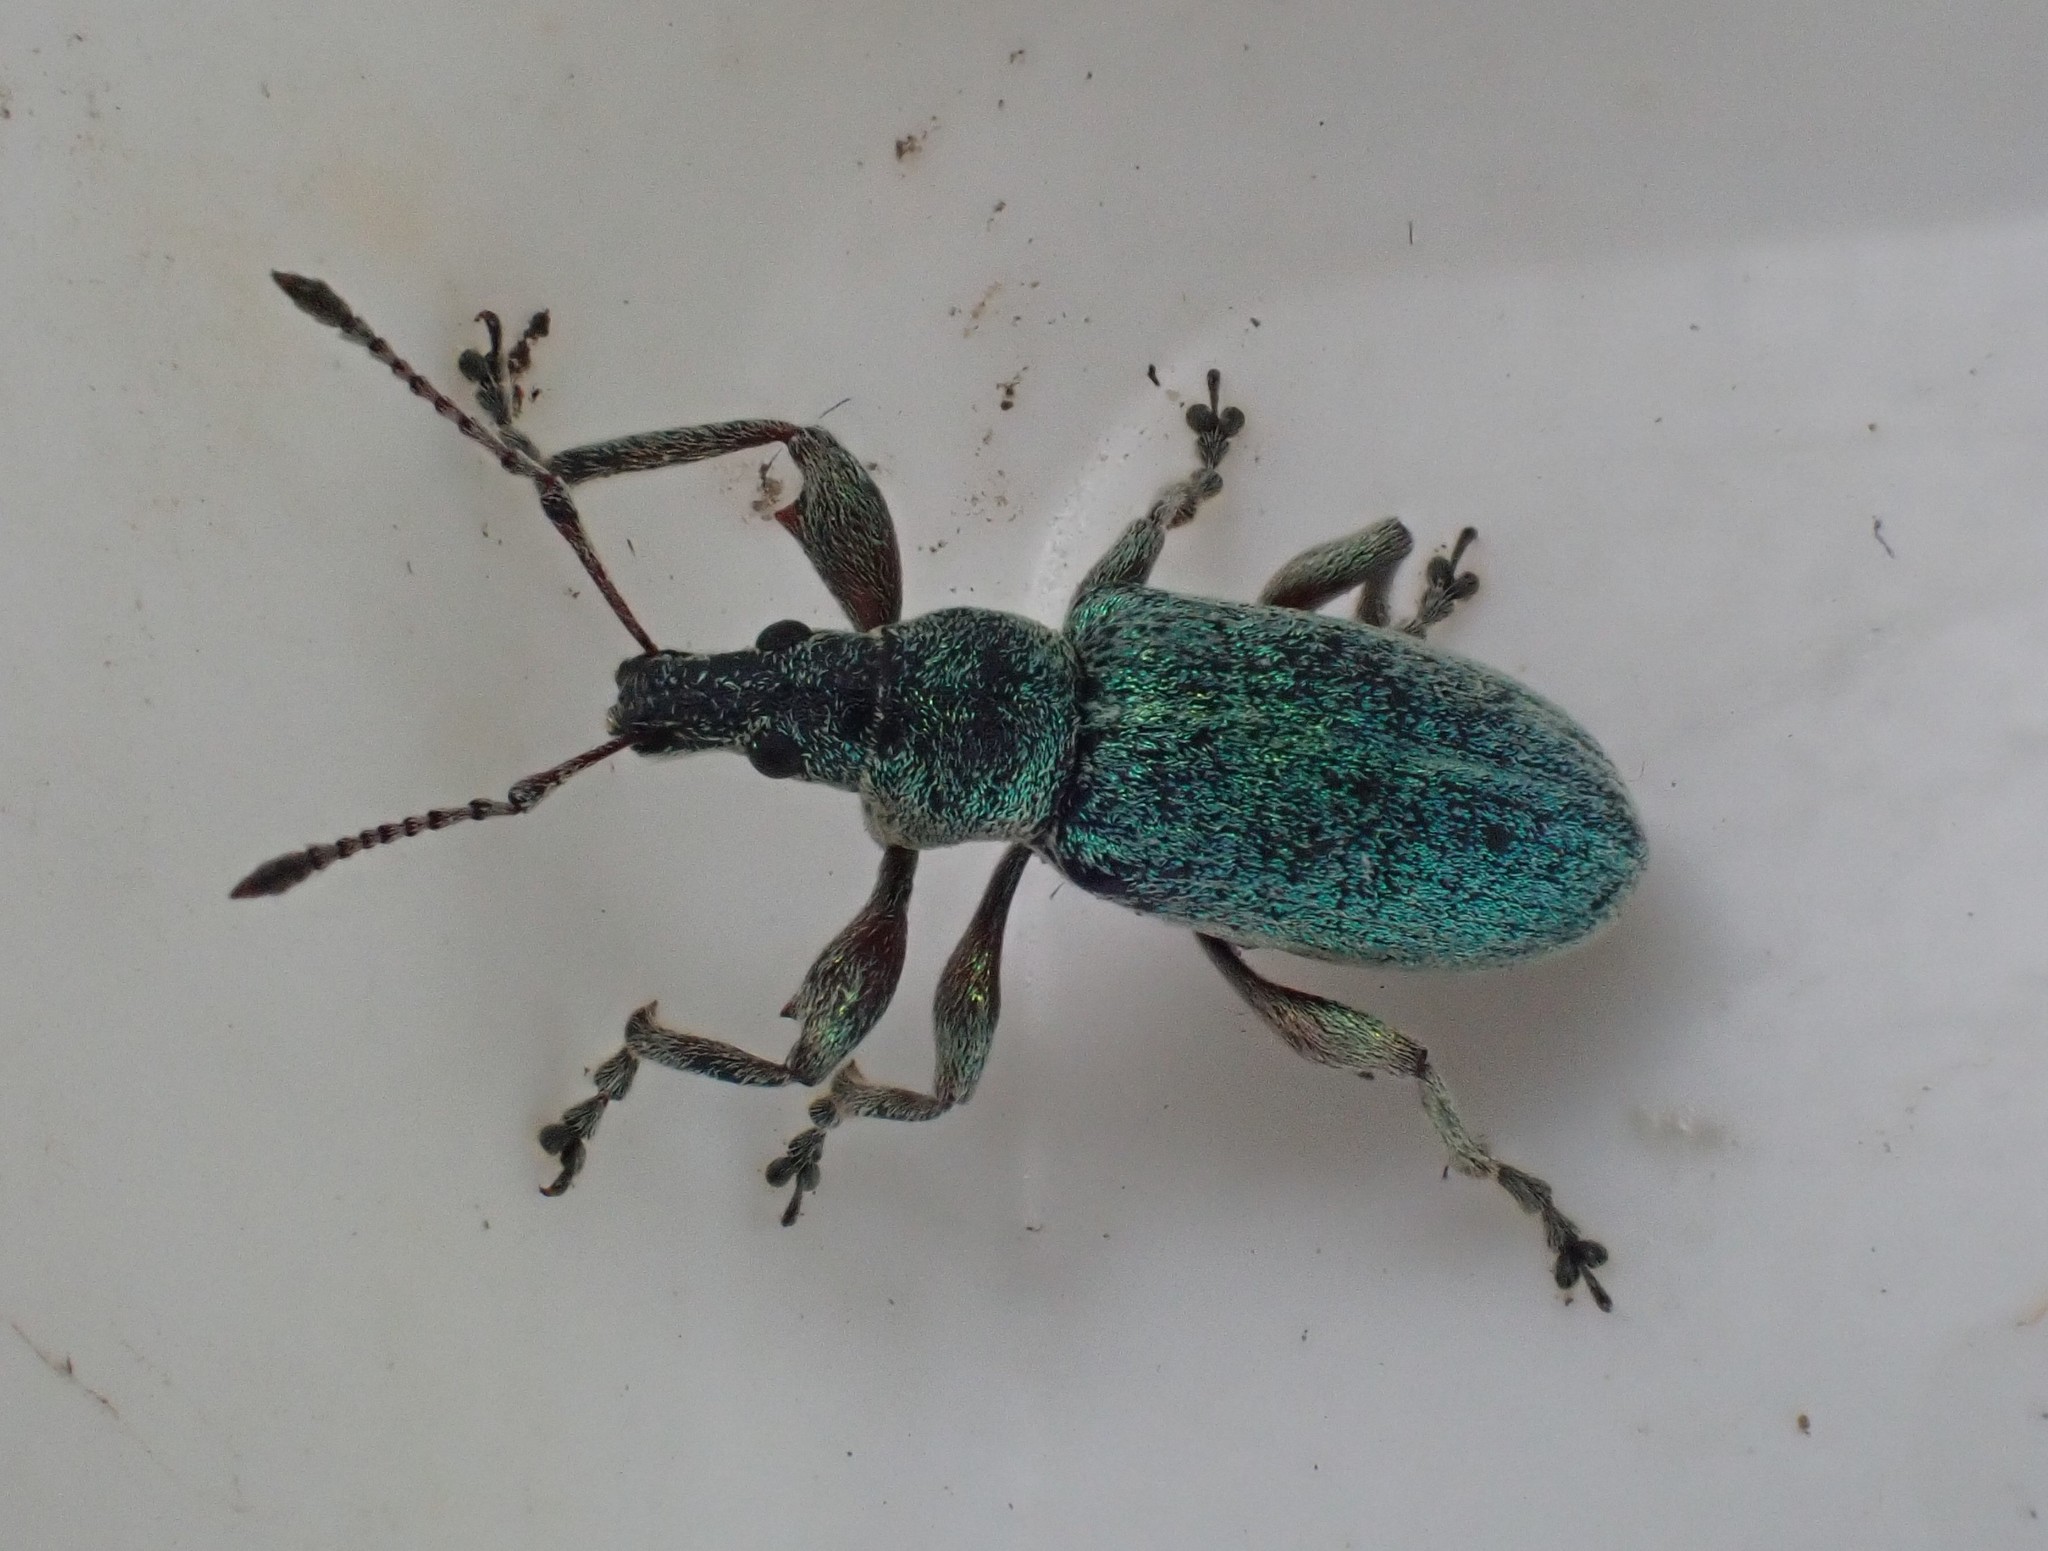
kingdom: Animalia
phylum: Arthropoda
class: Insecta
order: Coleoptera
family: Curculionidae
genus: Phyllobius
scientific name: Phyllobius pomaceus
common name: Green nettle weevil
